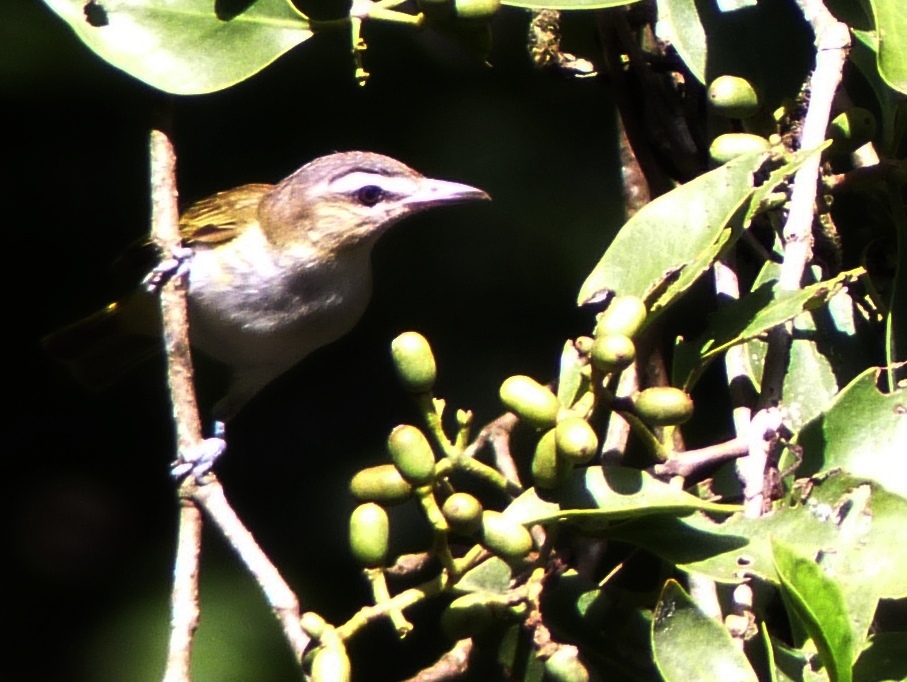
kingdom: Animalia
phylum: Chordata
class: Aves
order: Passeriformes
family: Vireonidae
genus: Vireo
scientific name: Vireo olivaceus
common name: Red-eyed vireo
